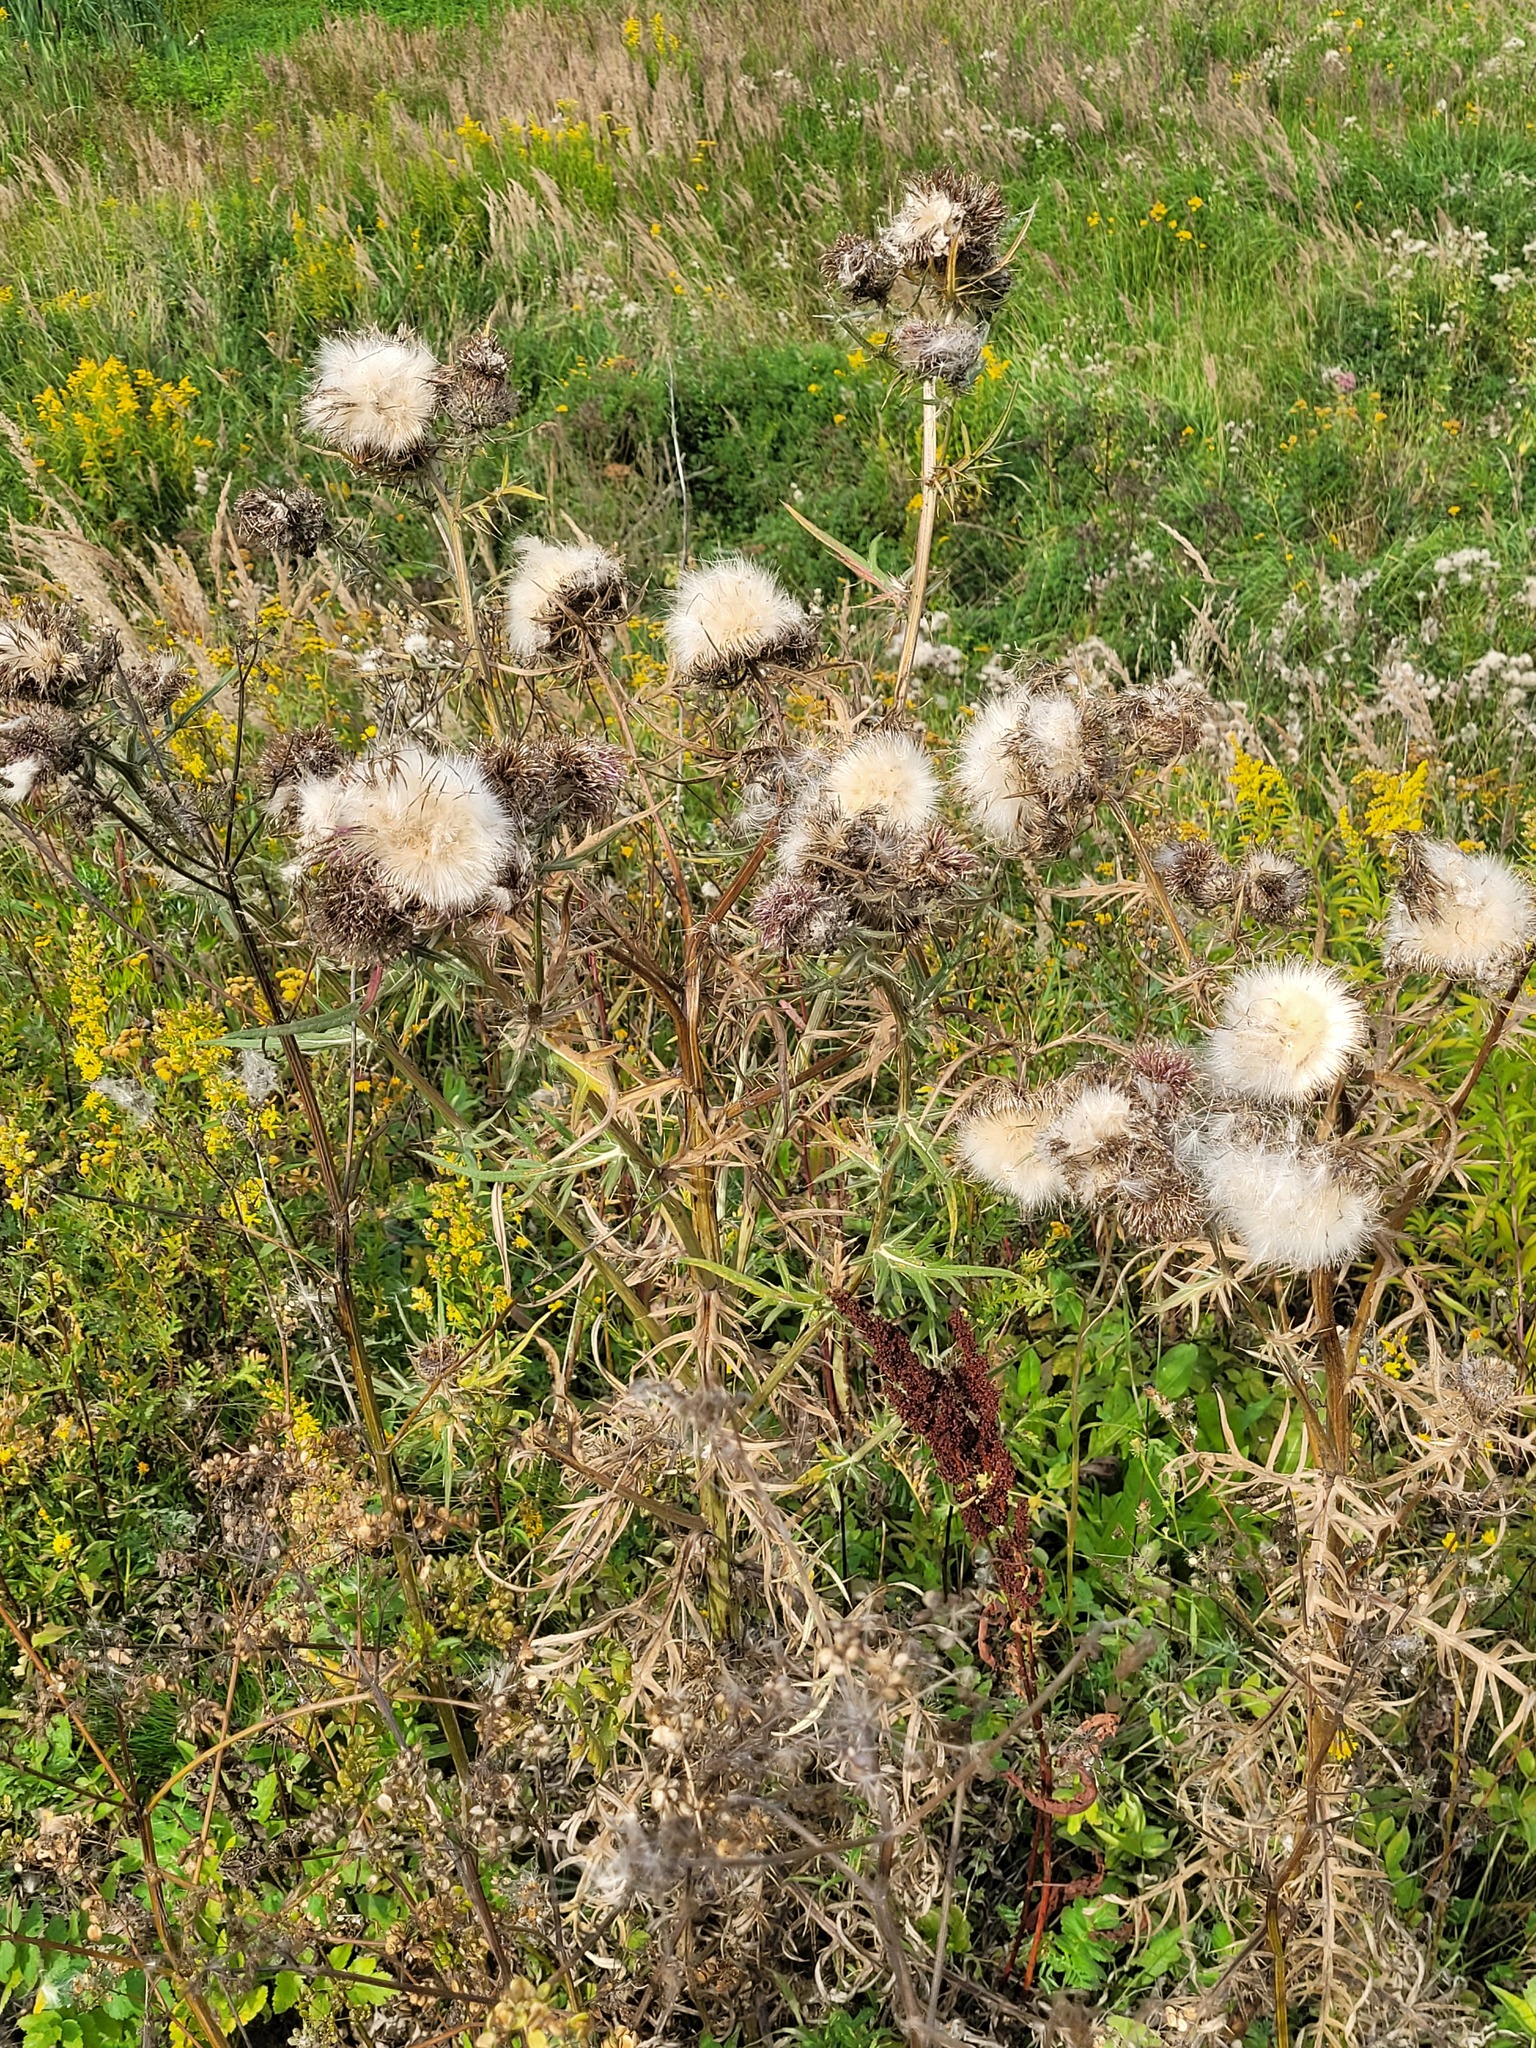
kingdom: Plantae
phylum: Tracheophyta
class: Magnoliopsida
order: Asterales
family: Asteraceae
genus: Lophiolepis
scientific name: Lophiolepis decussata
